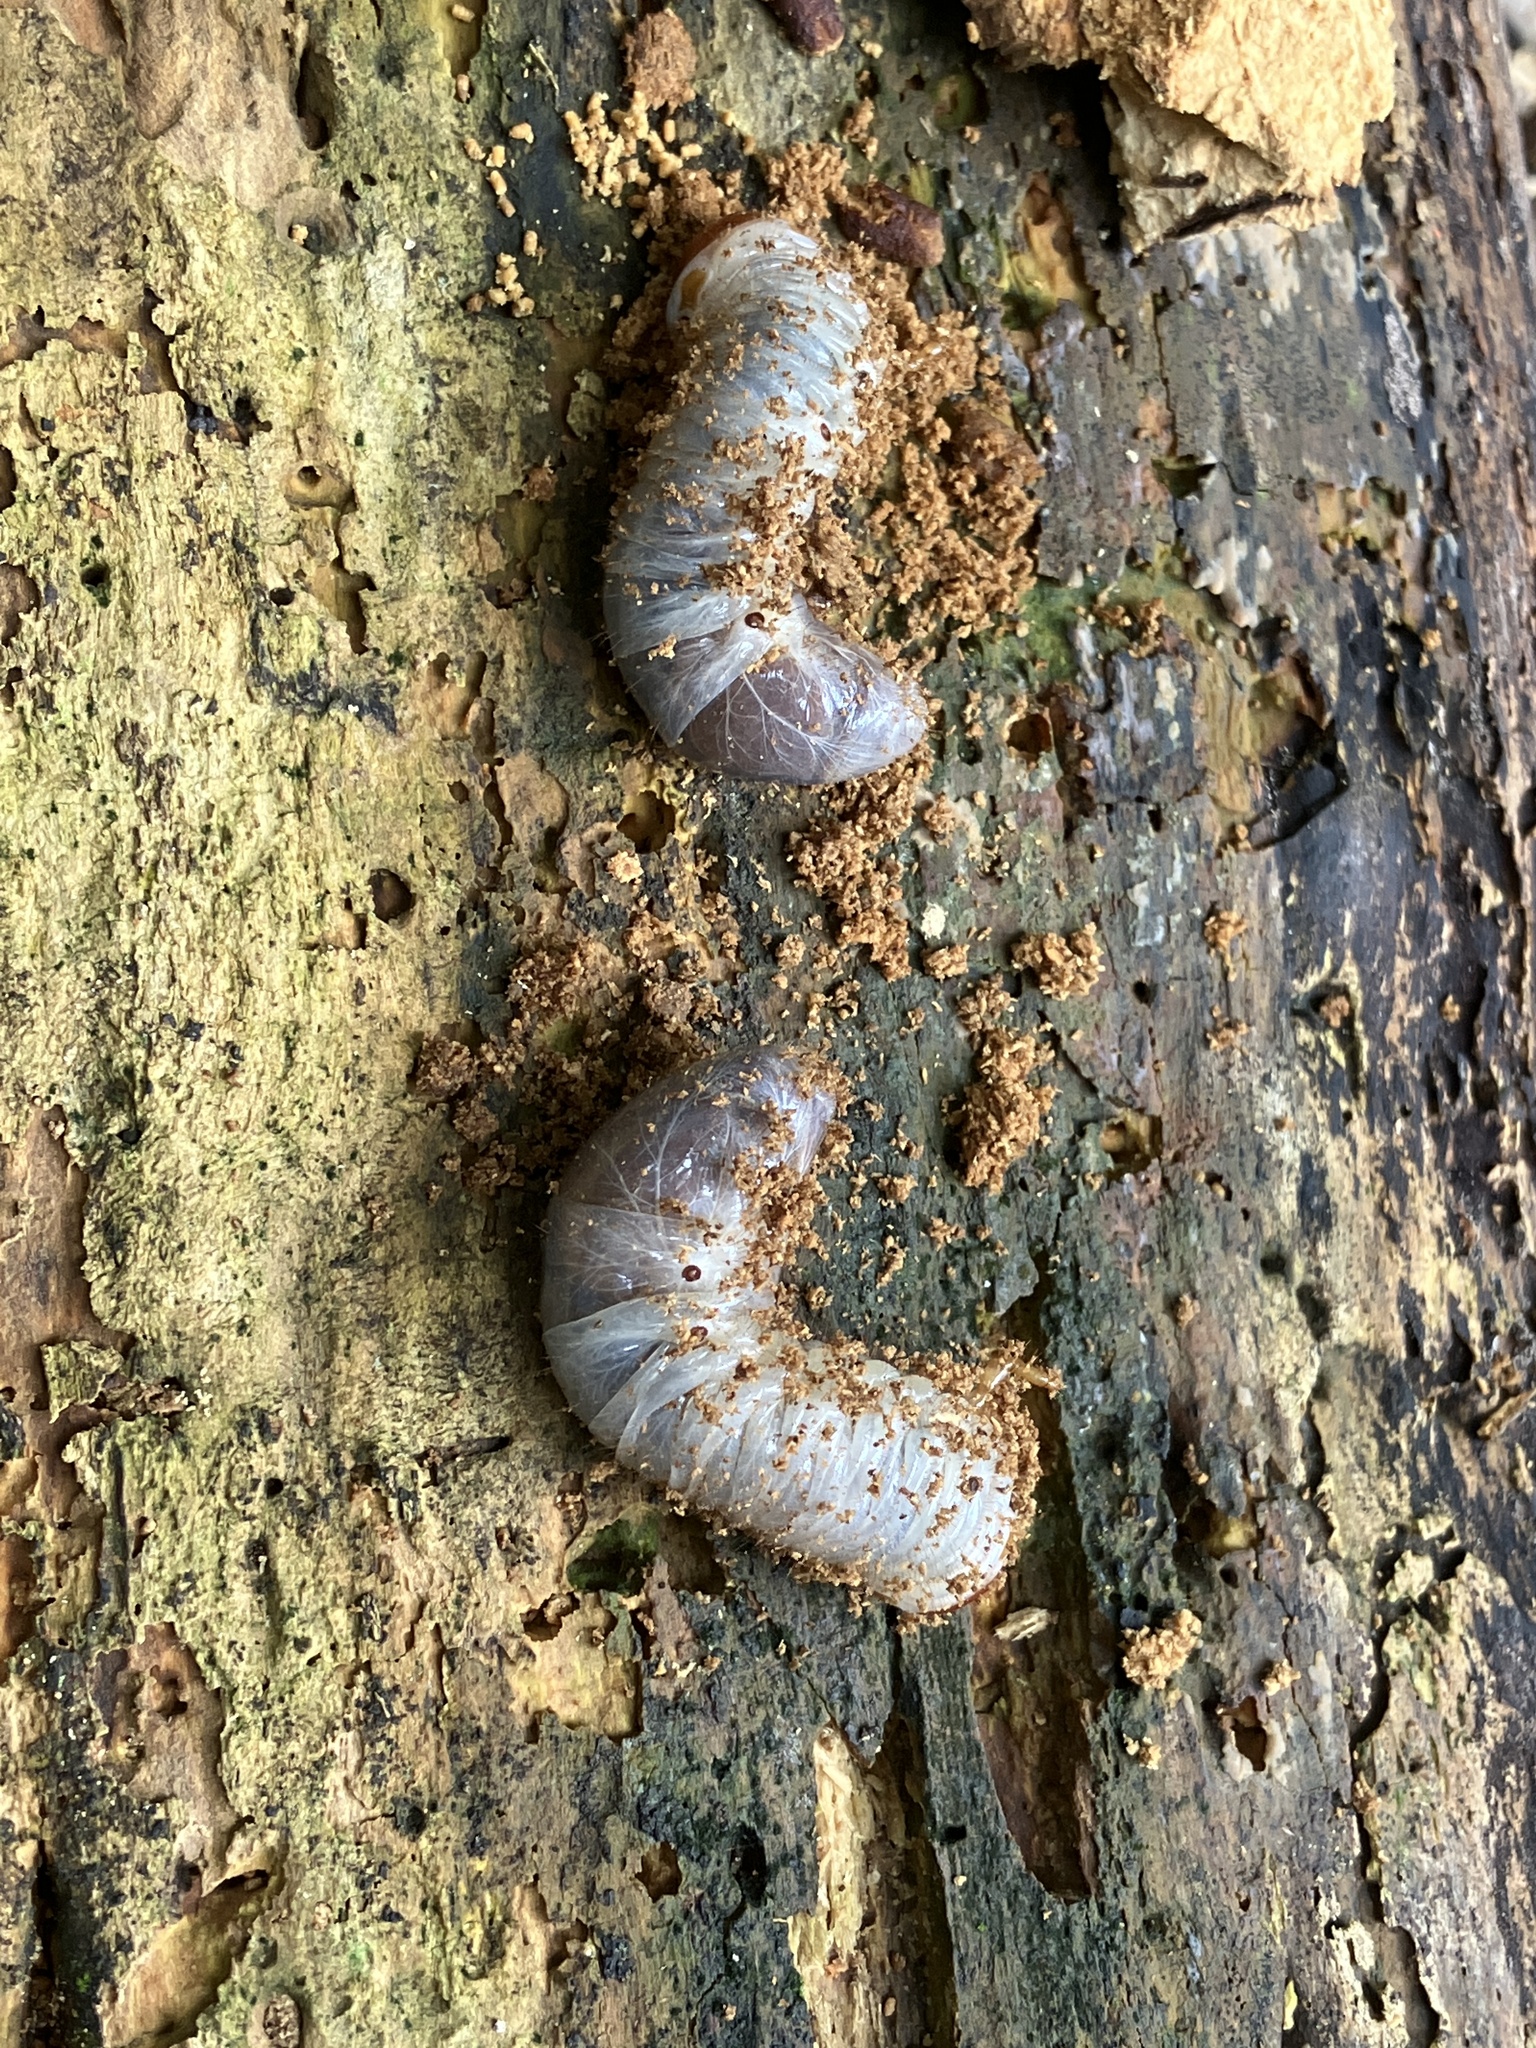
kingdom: Animalia
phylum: Arthropoda
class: Insecta
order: Coleoptera
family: Scarabaeidae
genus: Oryctes
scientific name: Oryctes rhinoceros
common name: Coconut rhinoceros beetle
